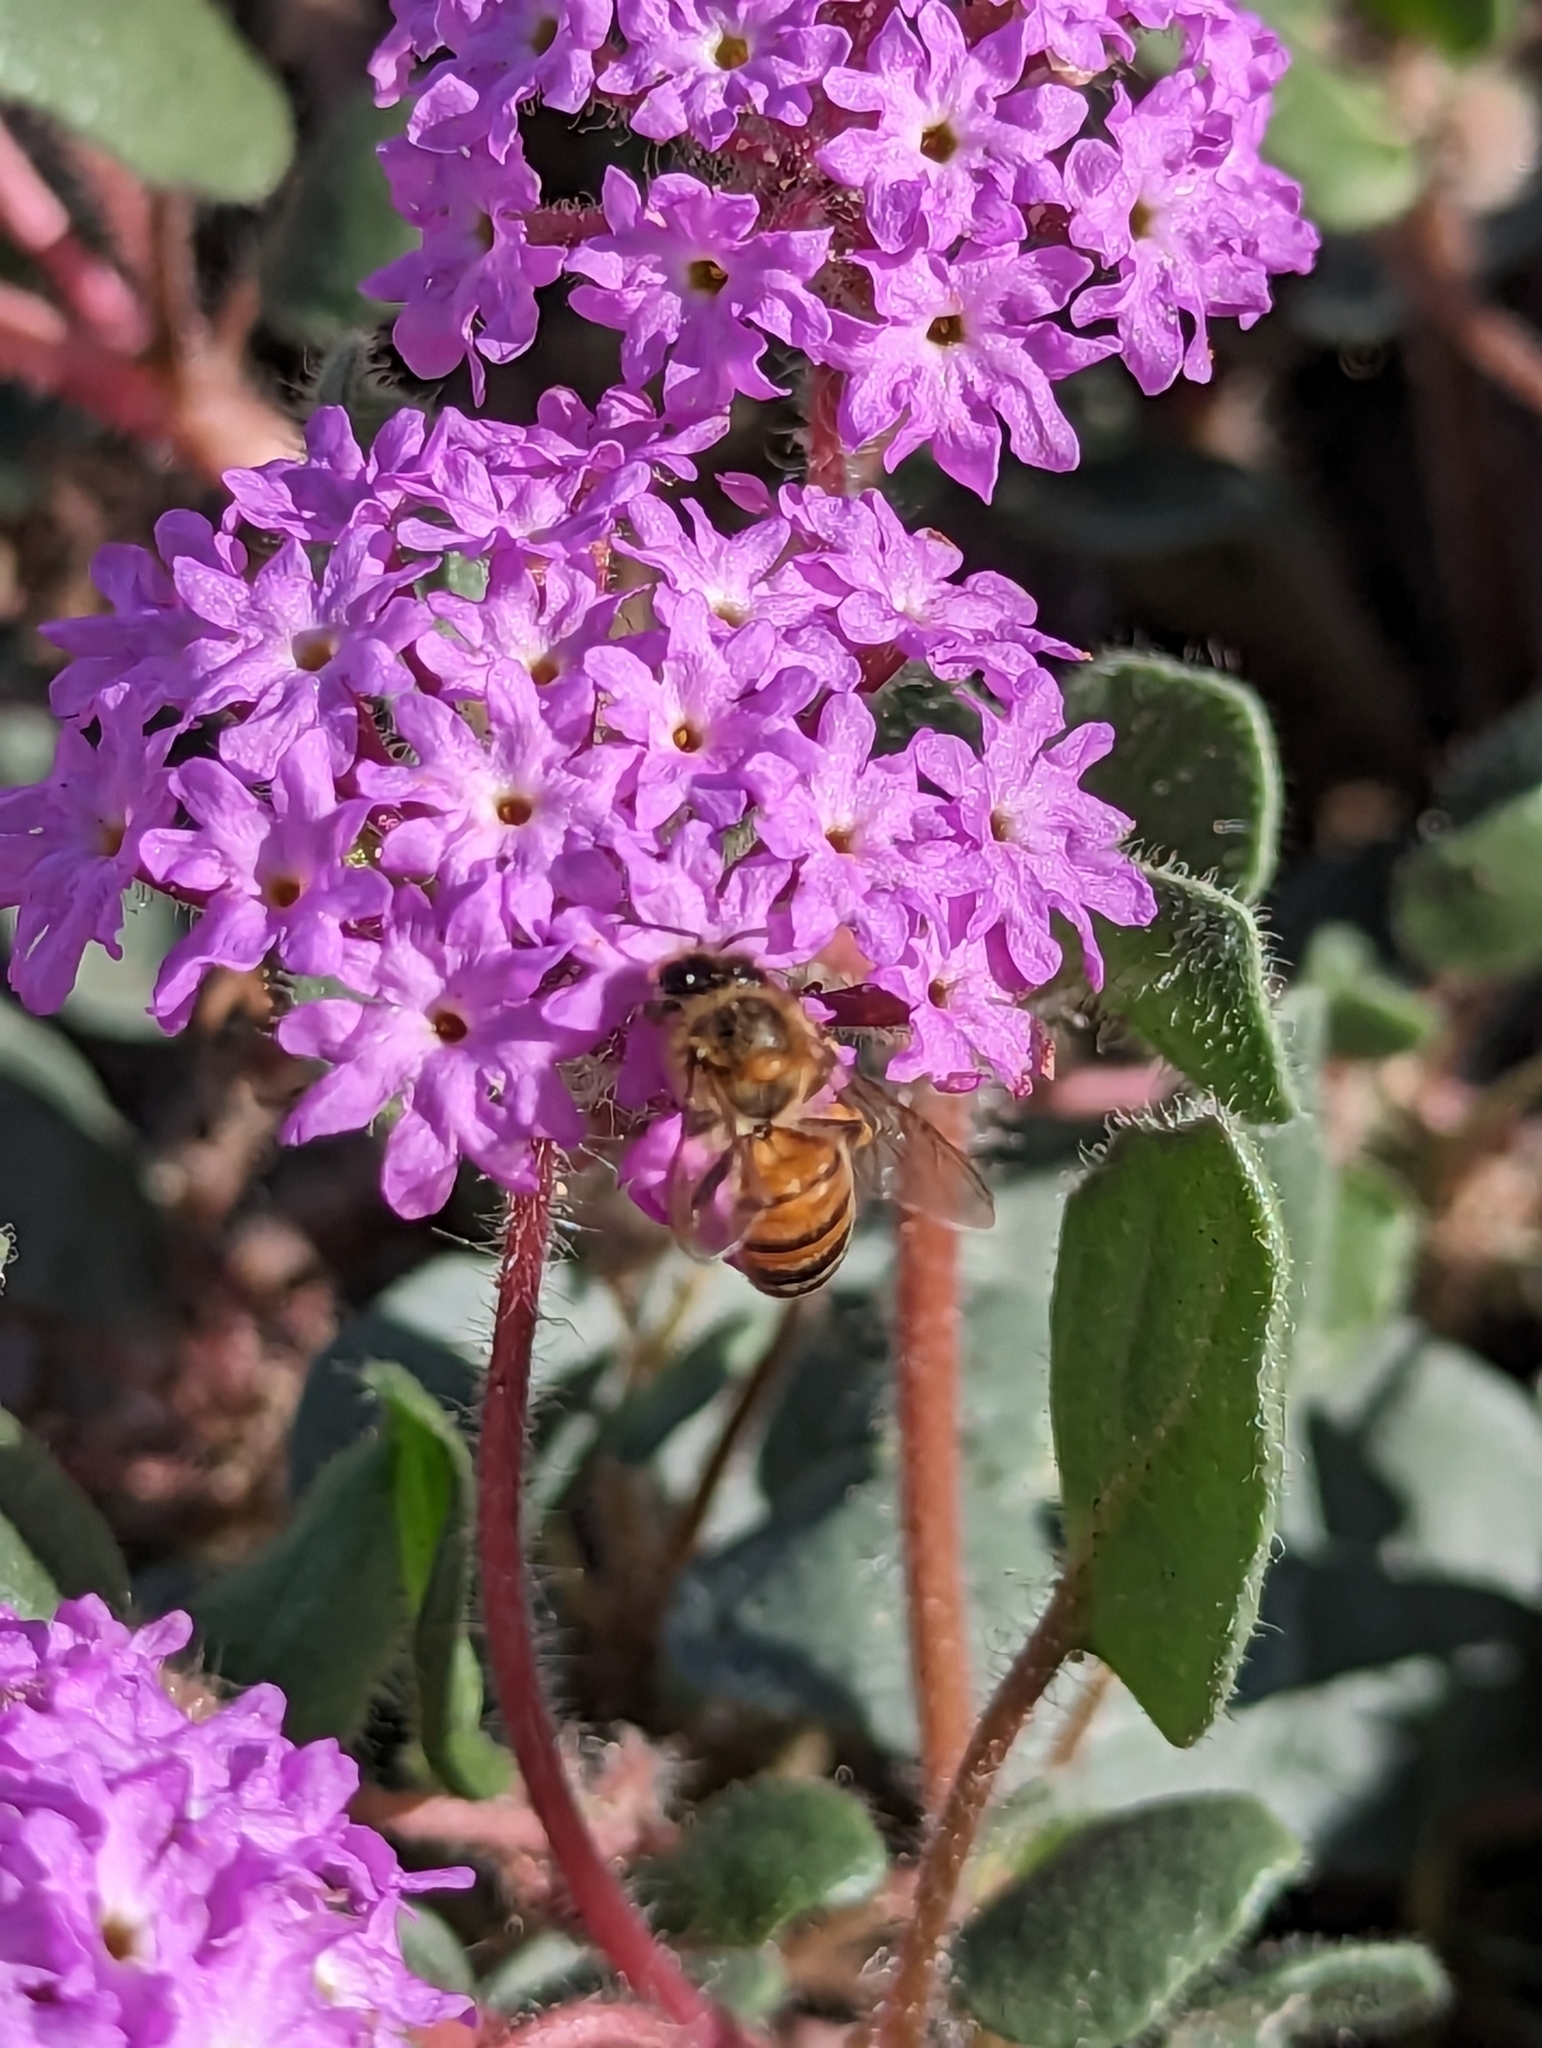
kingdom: Animalia
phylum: Arthropoda
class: Insecta
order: Hymenoptera
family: Apidae
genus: Apis
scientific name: Apis mellifera
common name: Honey bee
